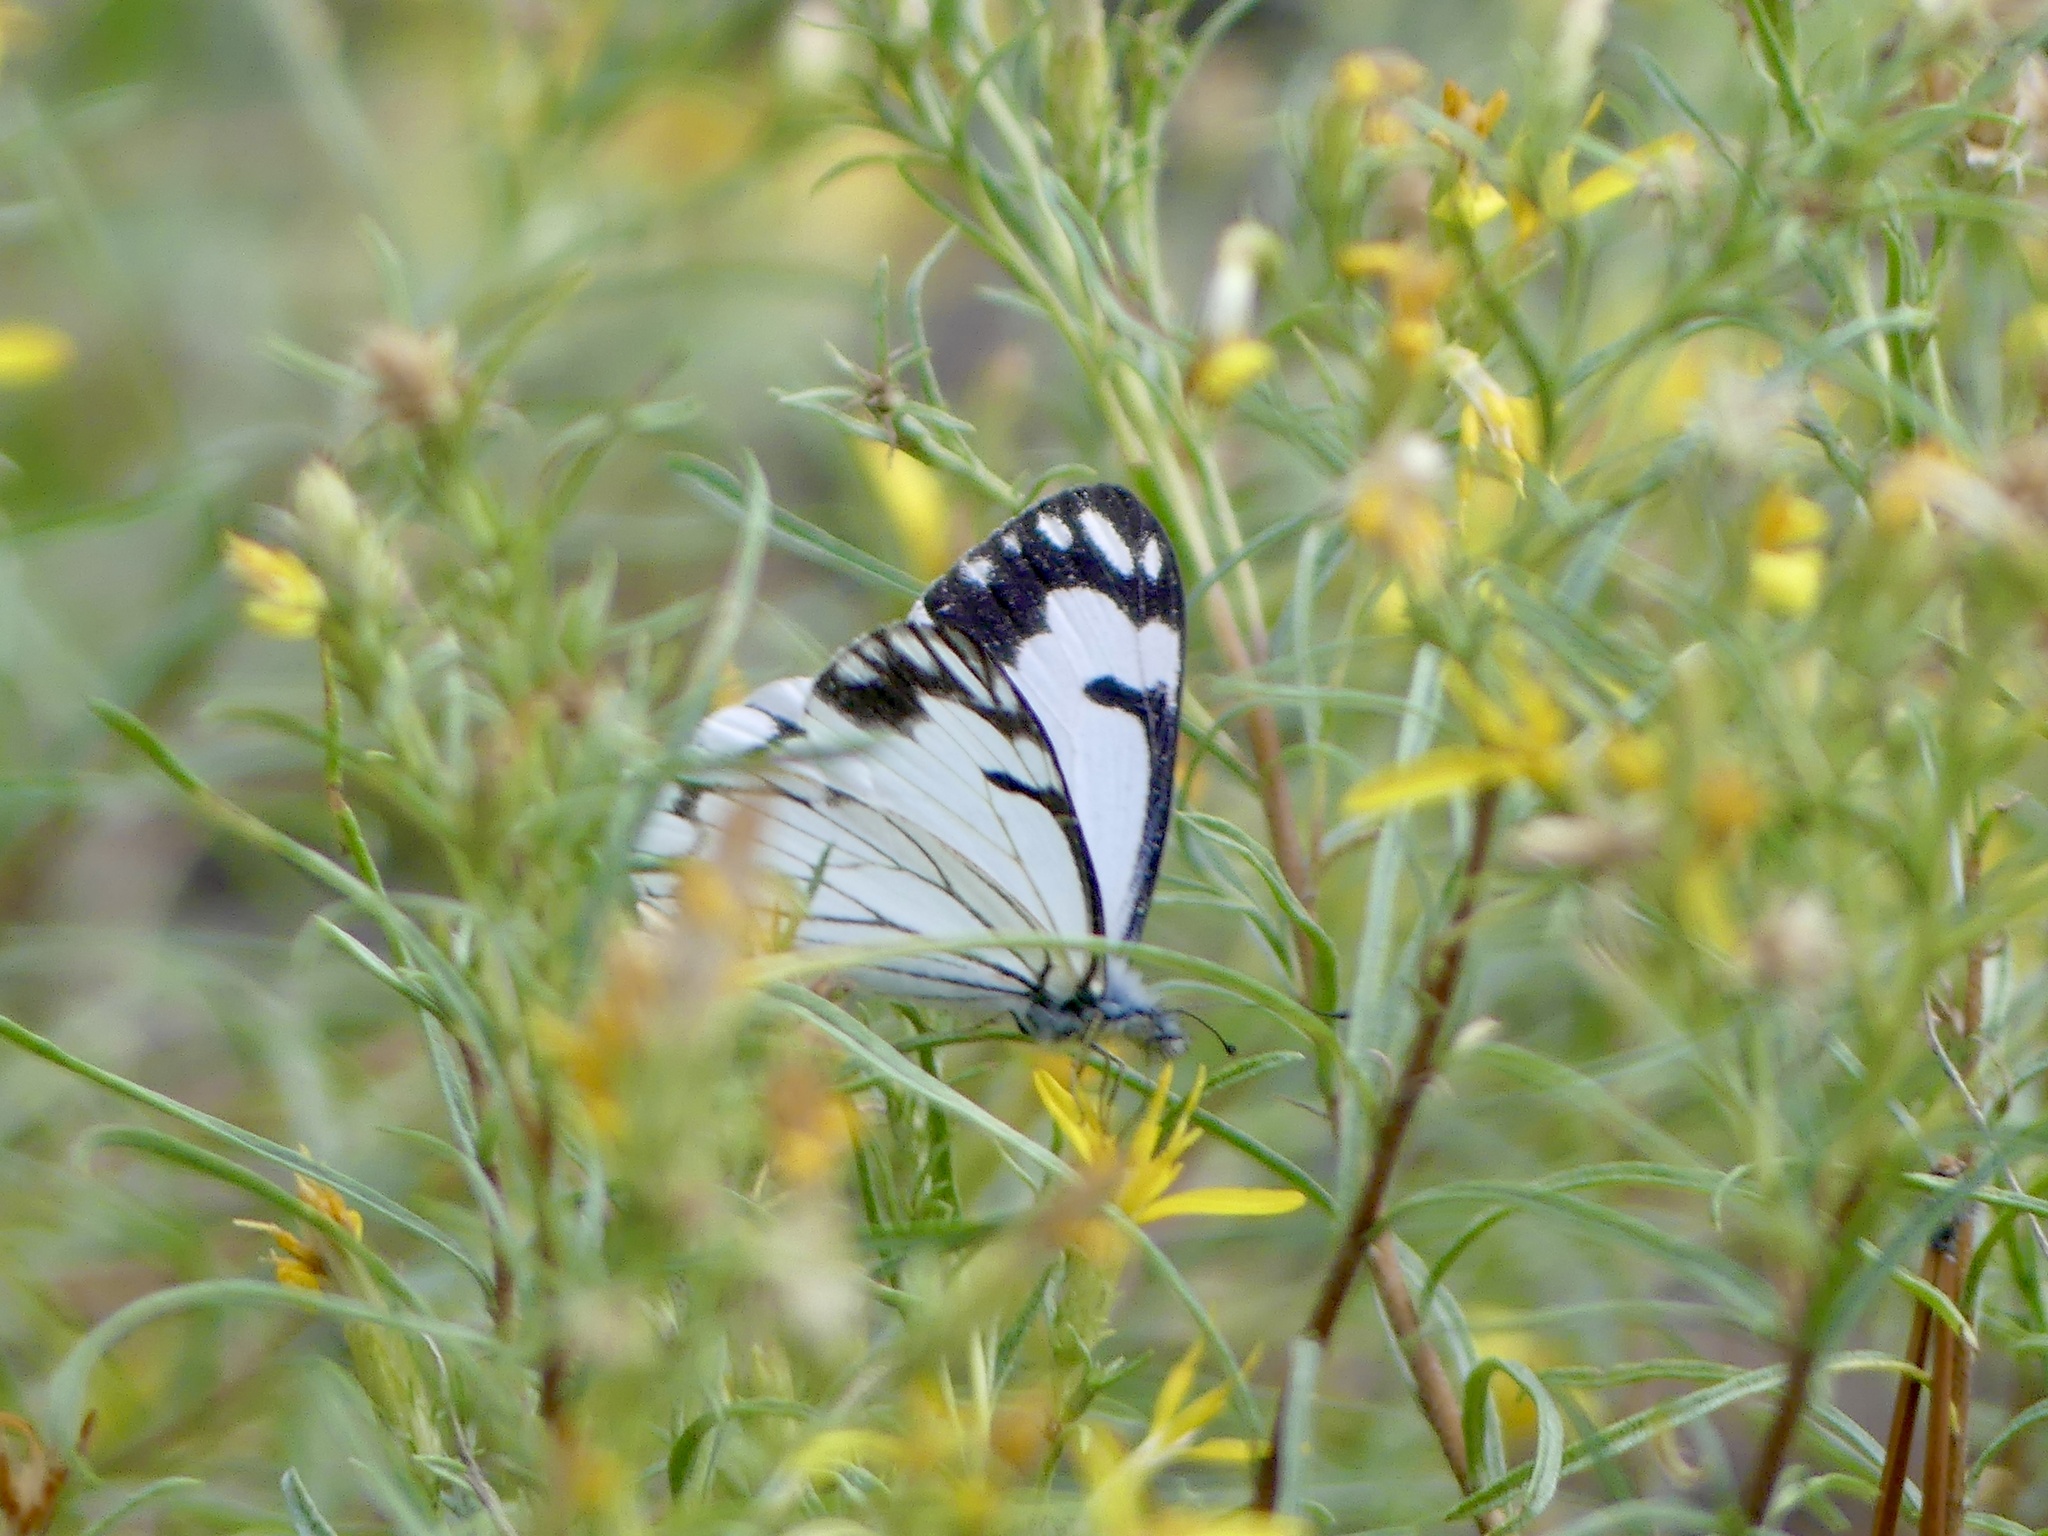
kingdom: Animalia
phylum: Arthropoda
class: Insecta
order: Lepidoptera
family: Pieridae
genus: Neophasia
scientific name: Neophasia menapia
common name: Pine white
